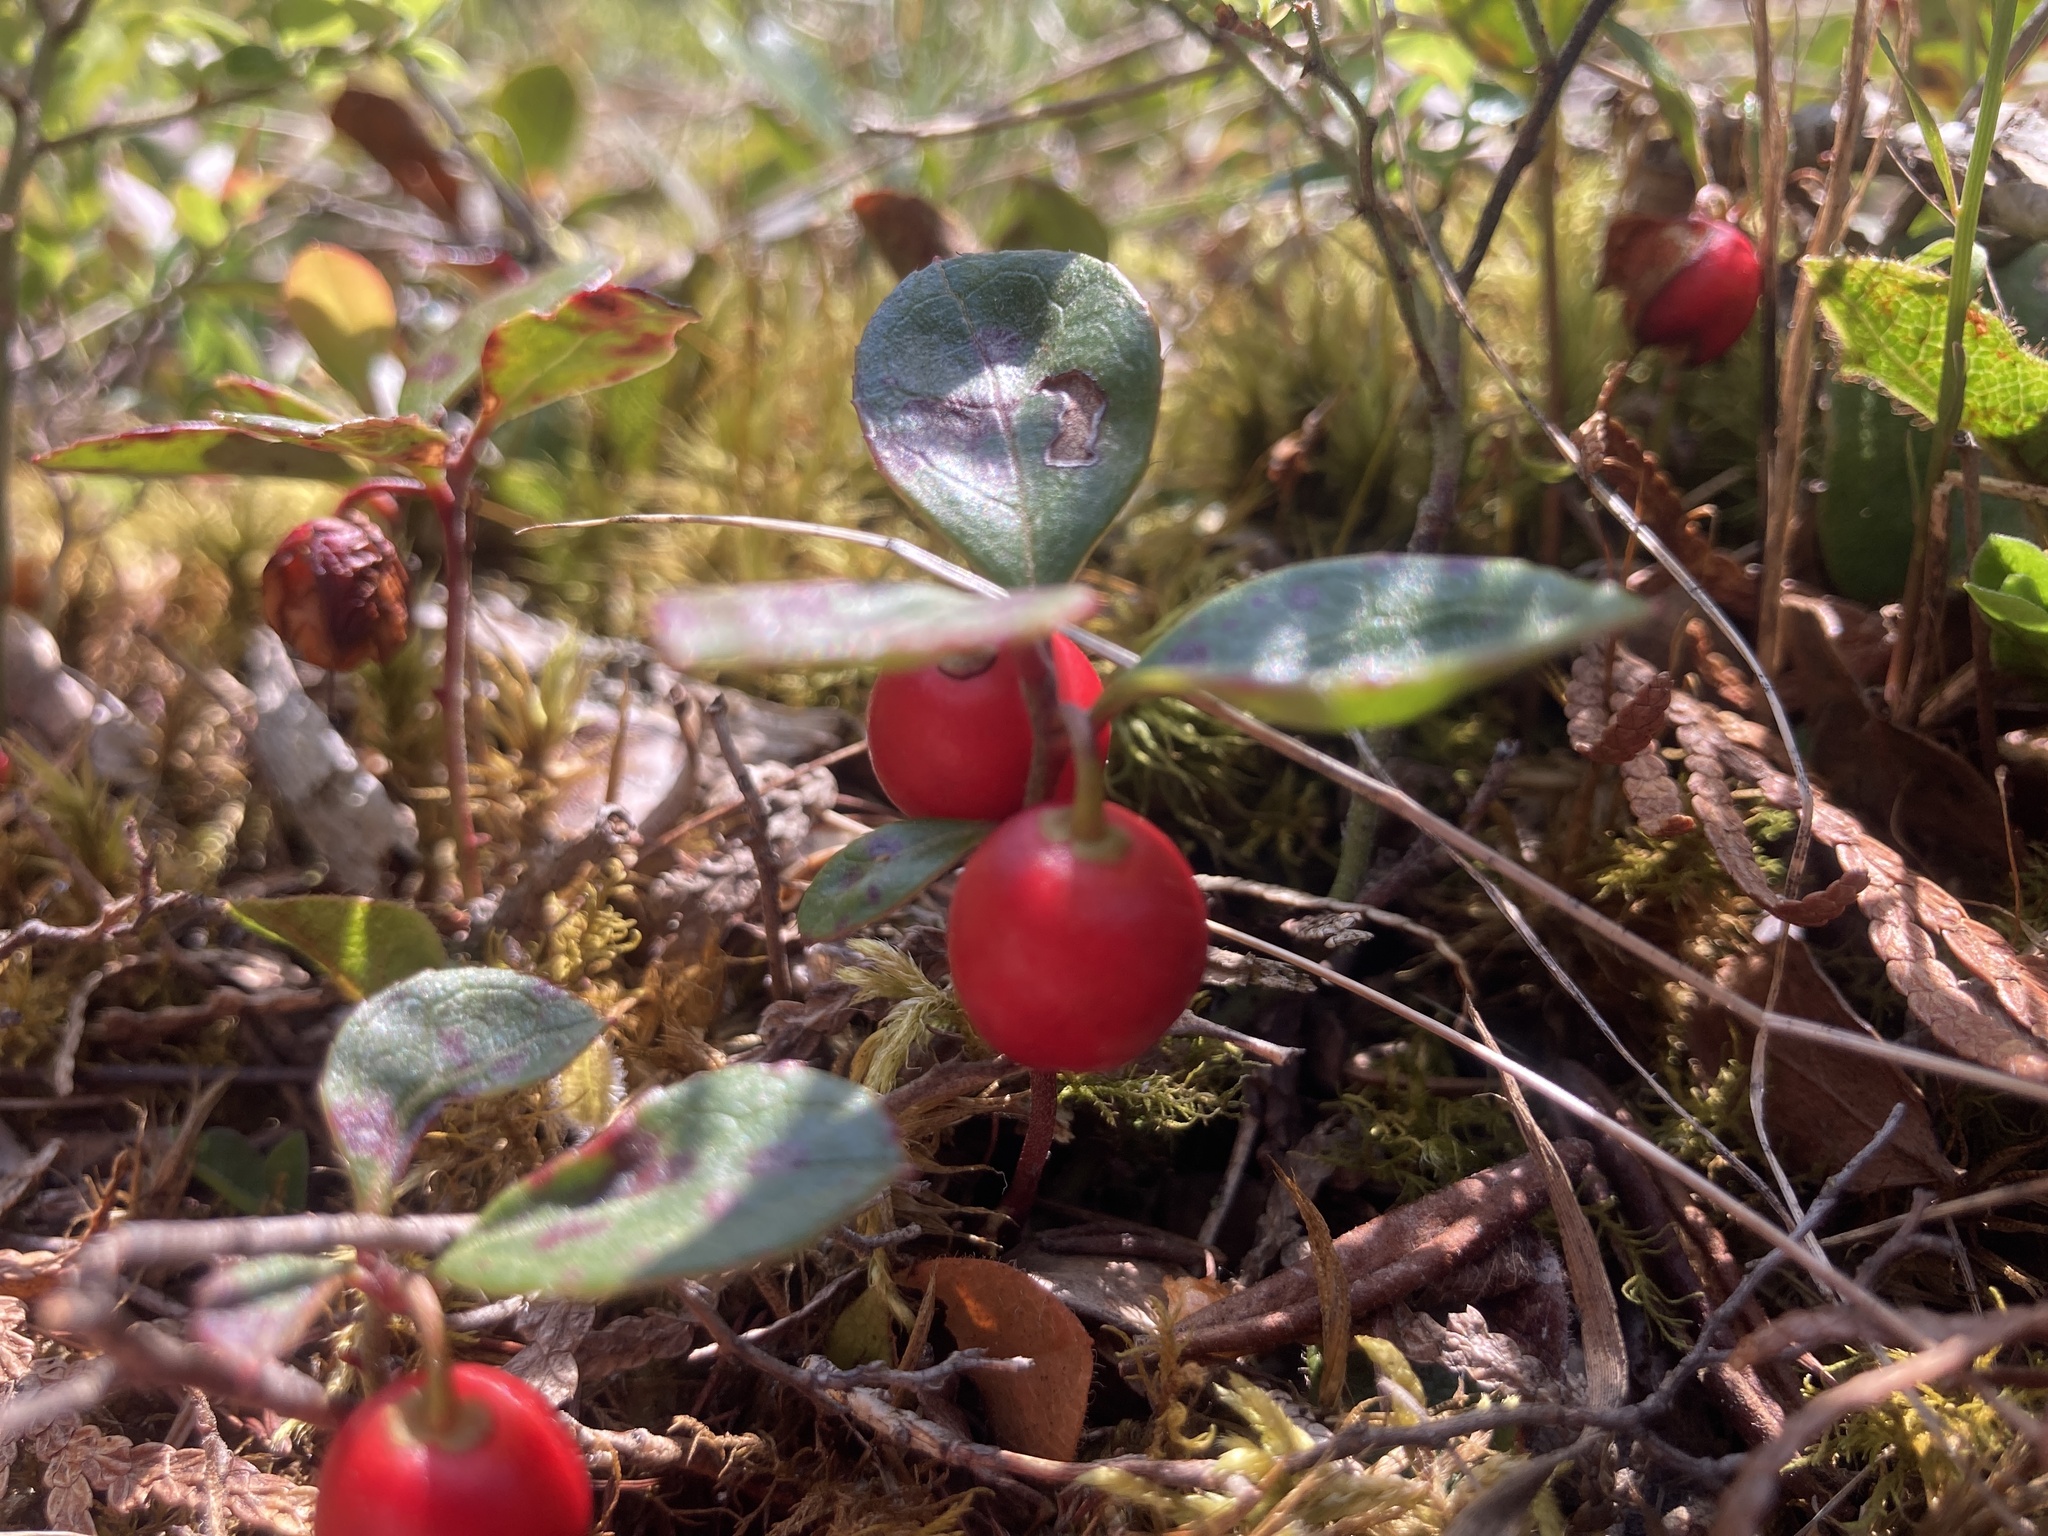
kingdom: Plantae
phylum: Tracheophyta
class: Magnoliopsida
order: Ericales
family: Ericaceae
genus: Gaultheria
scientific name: Gaultheria procumbens
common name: Checkerberry
